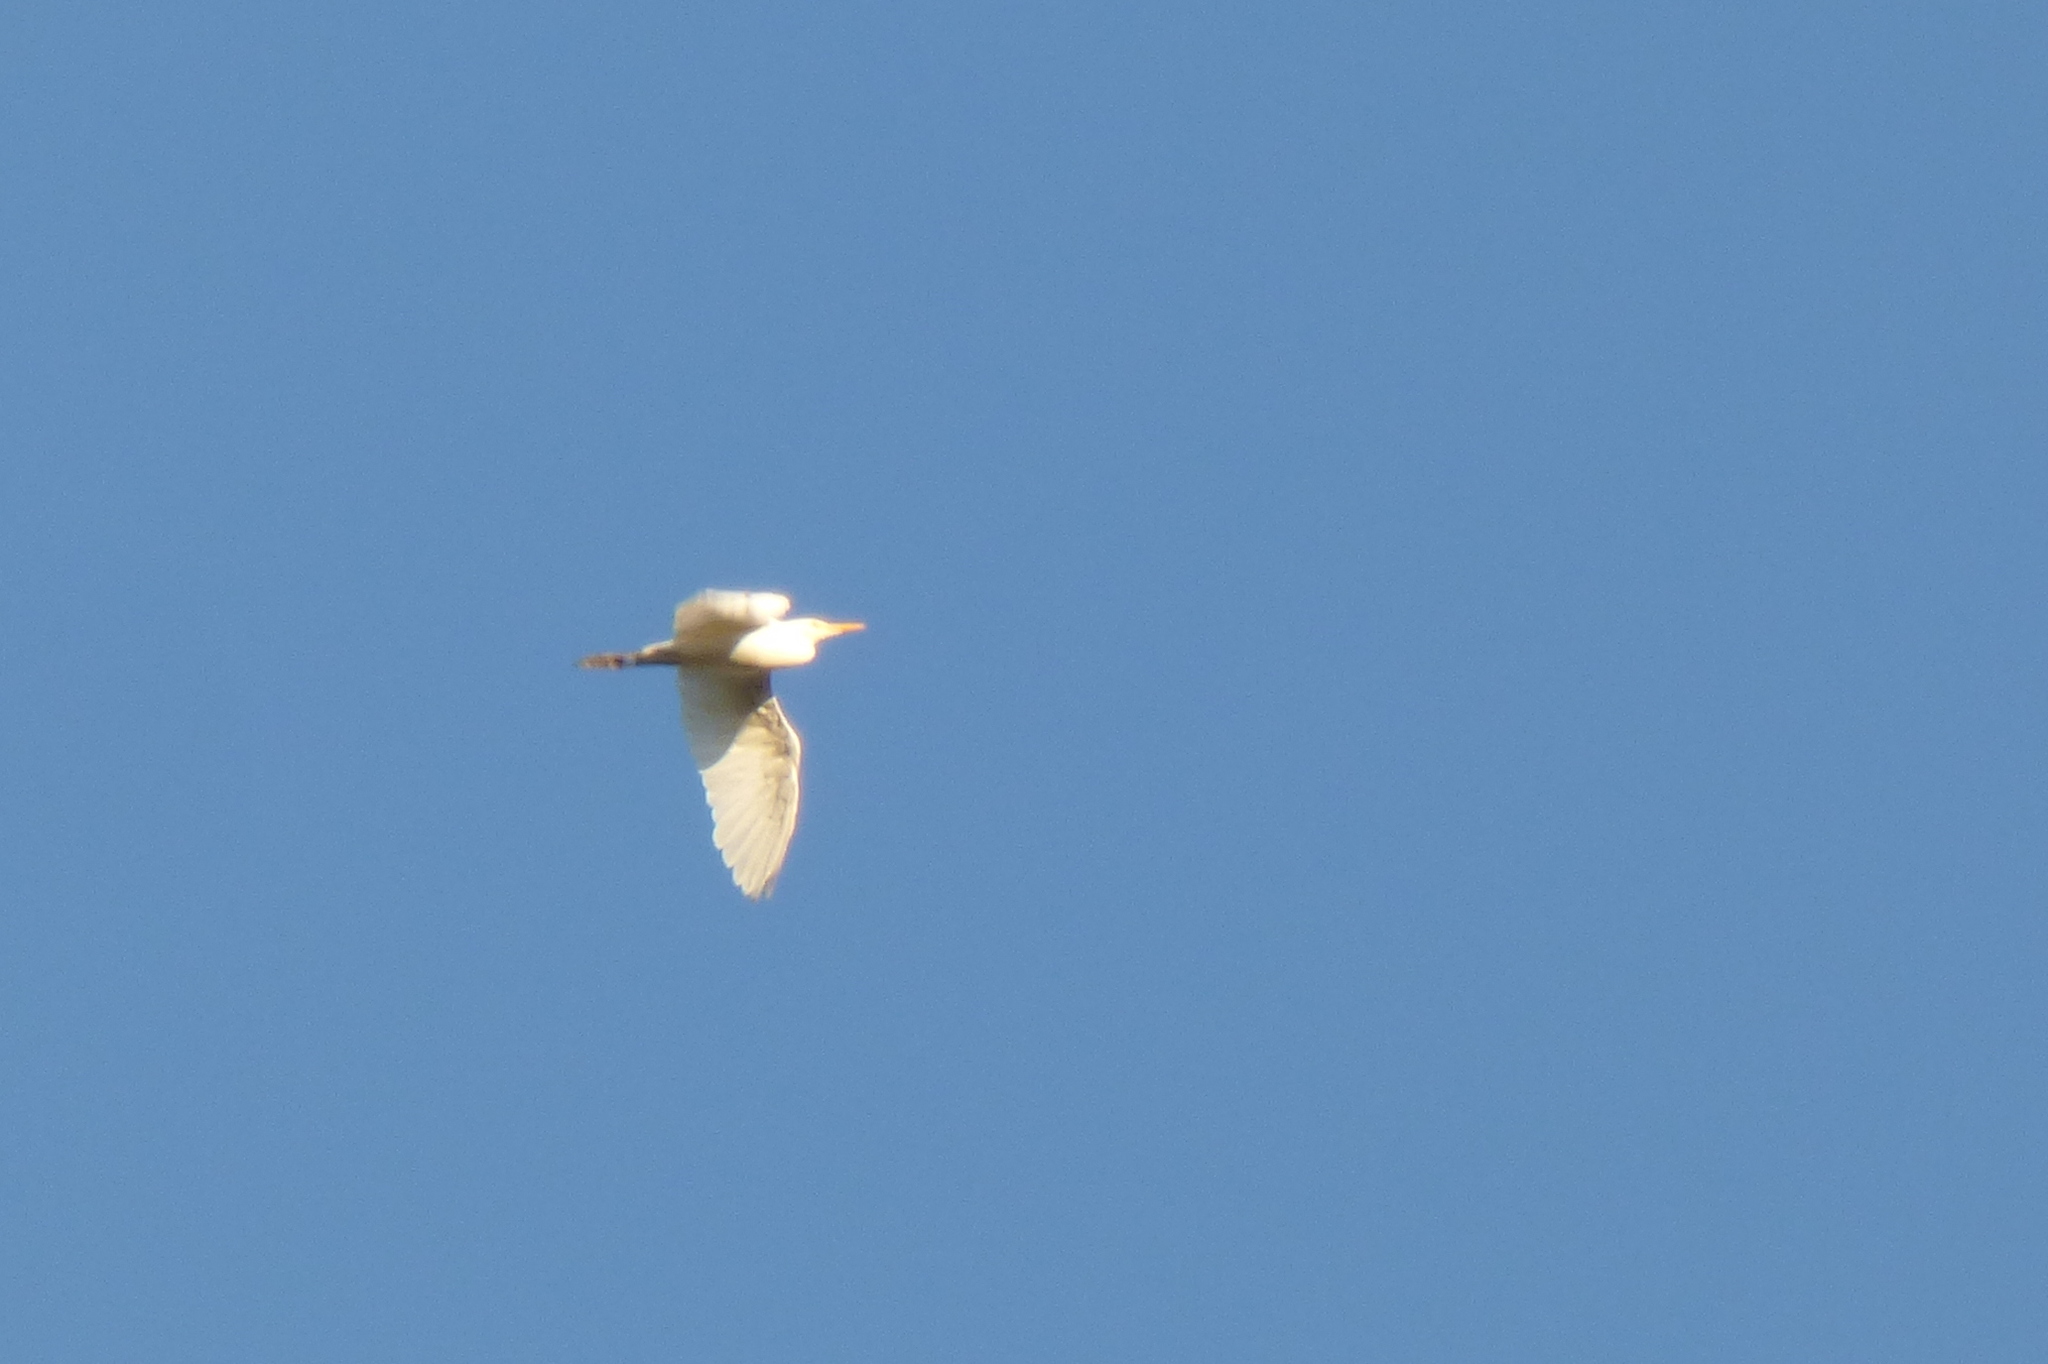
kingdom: Animalia
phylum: Chordata
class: Aves
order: Pelecaniformes
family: Ardeidae
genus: Bubulcus
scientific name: Bubulcus ibis
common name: Cattle egret
